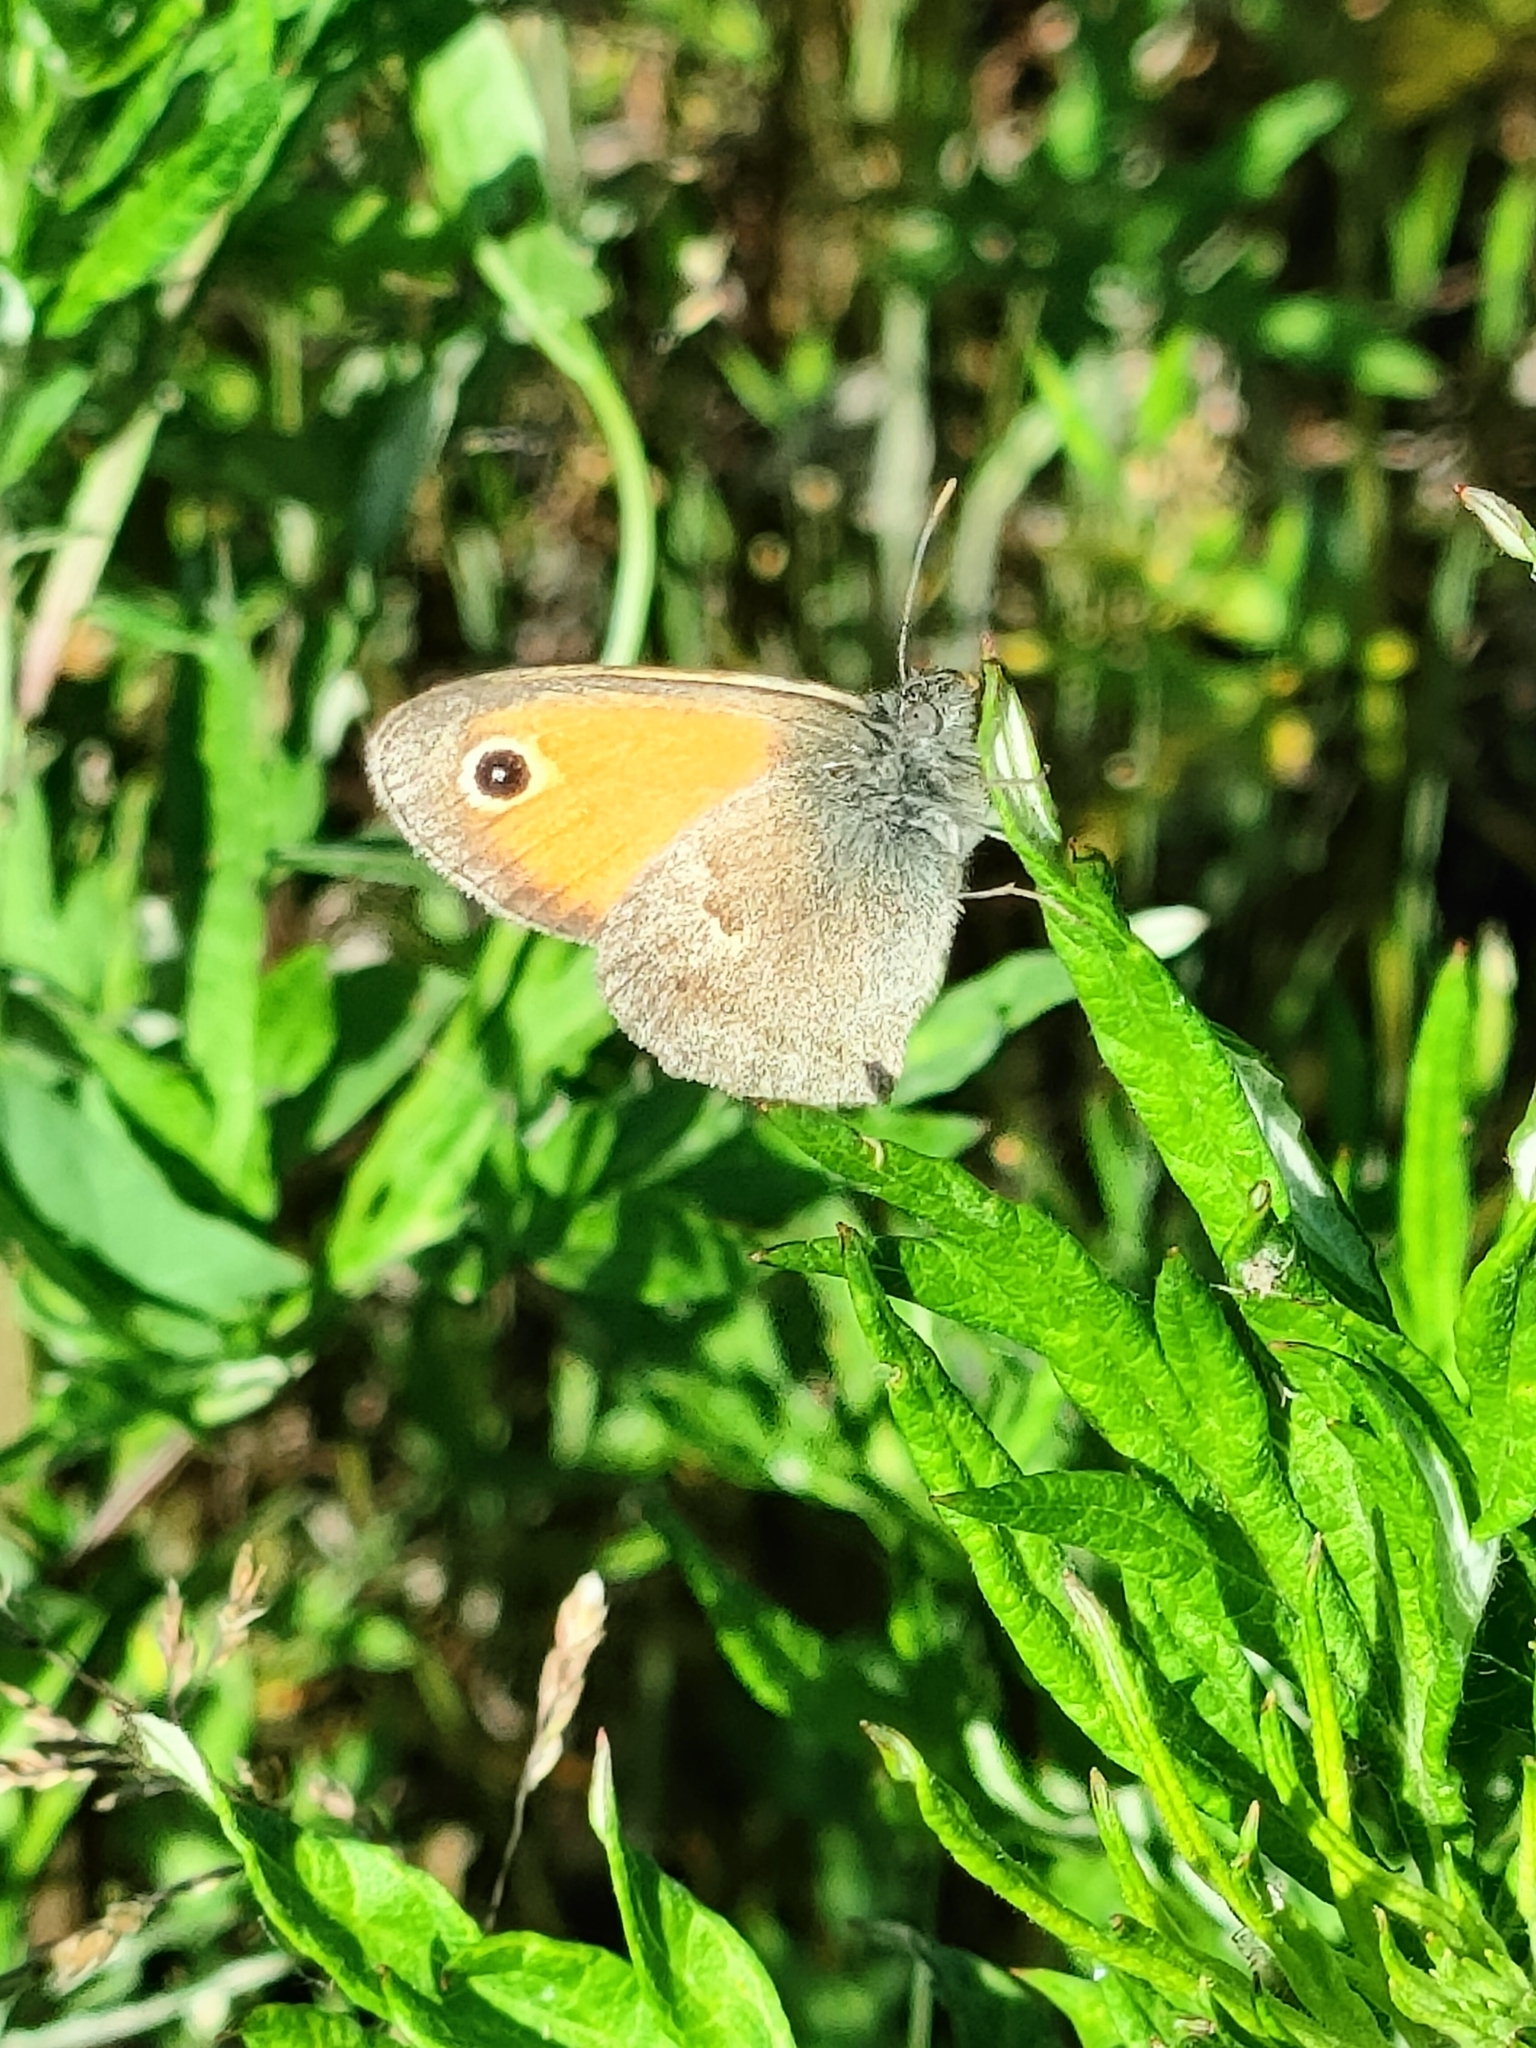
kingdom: Animalia
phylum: Arthropoda
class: Insecta
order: Lepidoptera
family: Nymphalidae
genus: Coenonympha
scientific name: Coenonympha pamphilus
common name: Small heath
